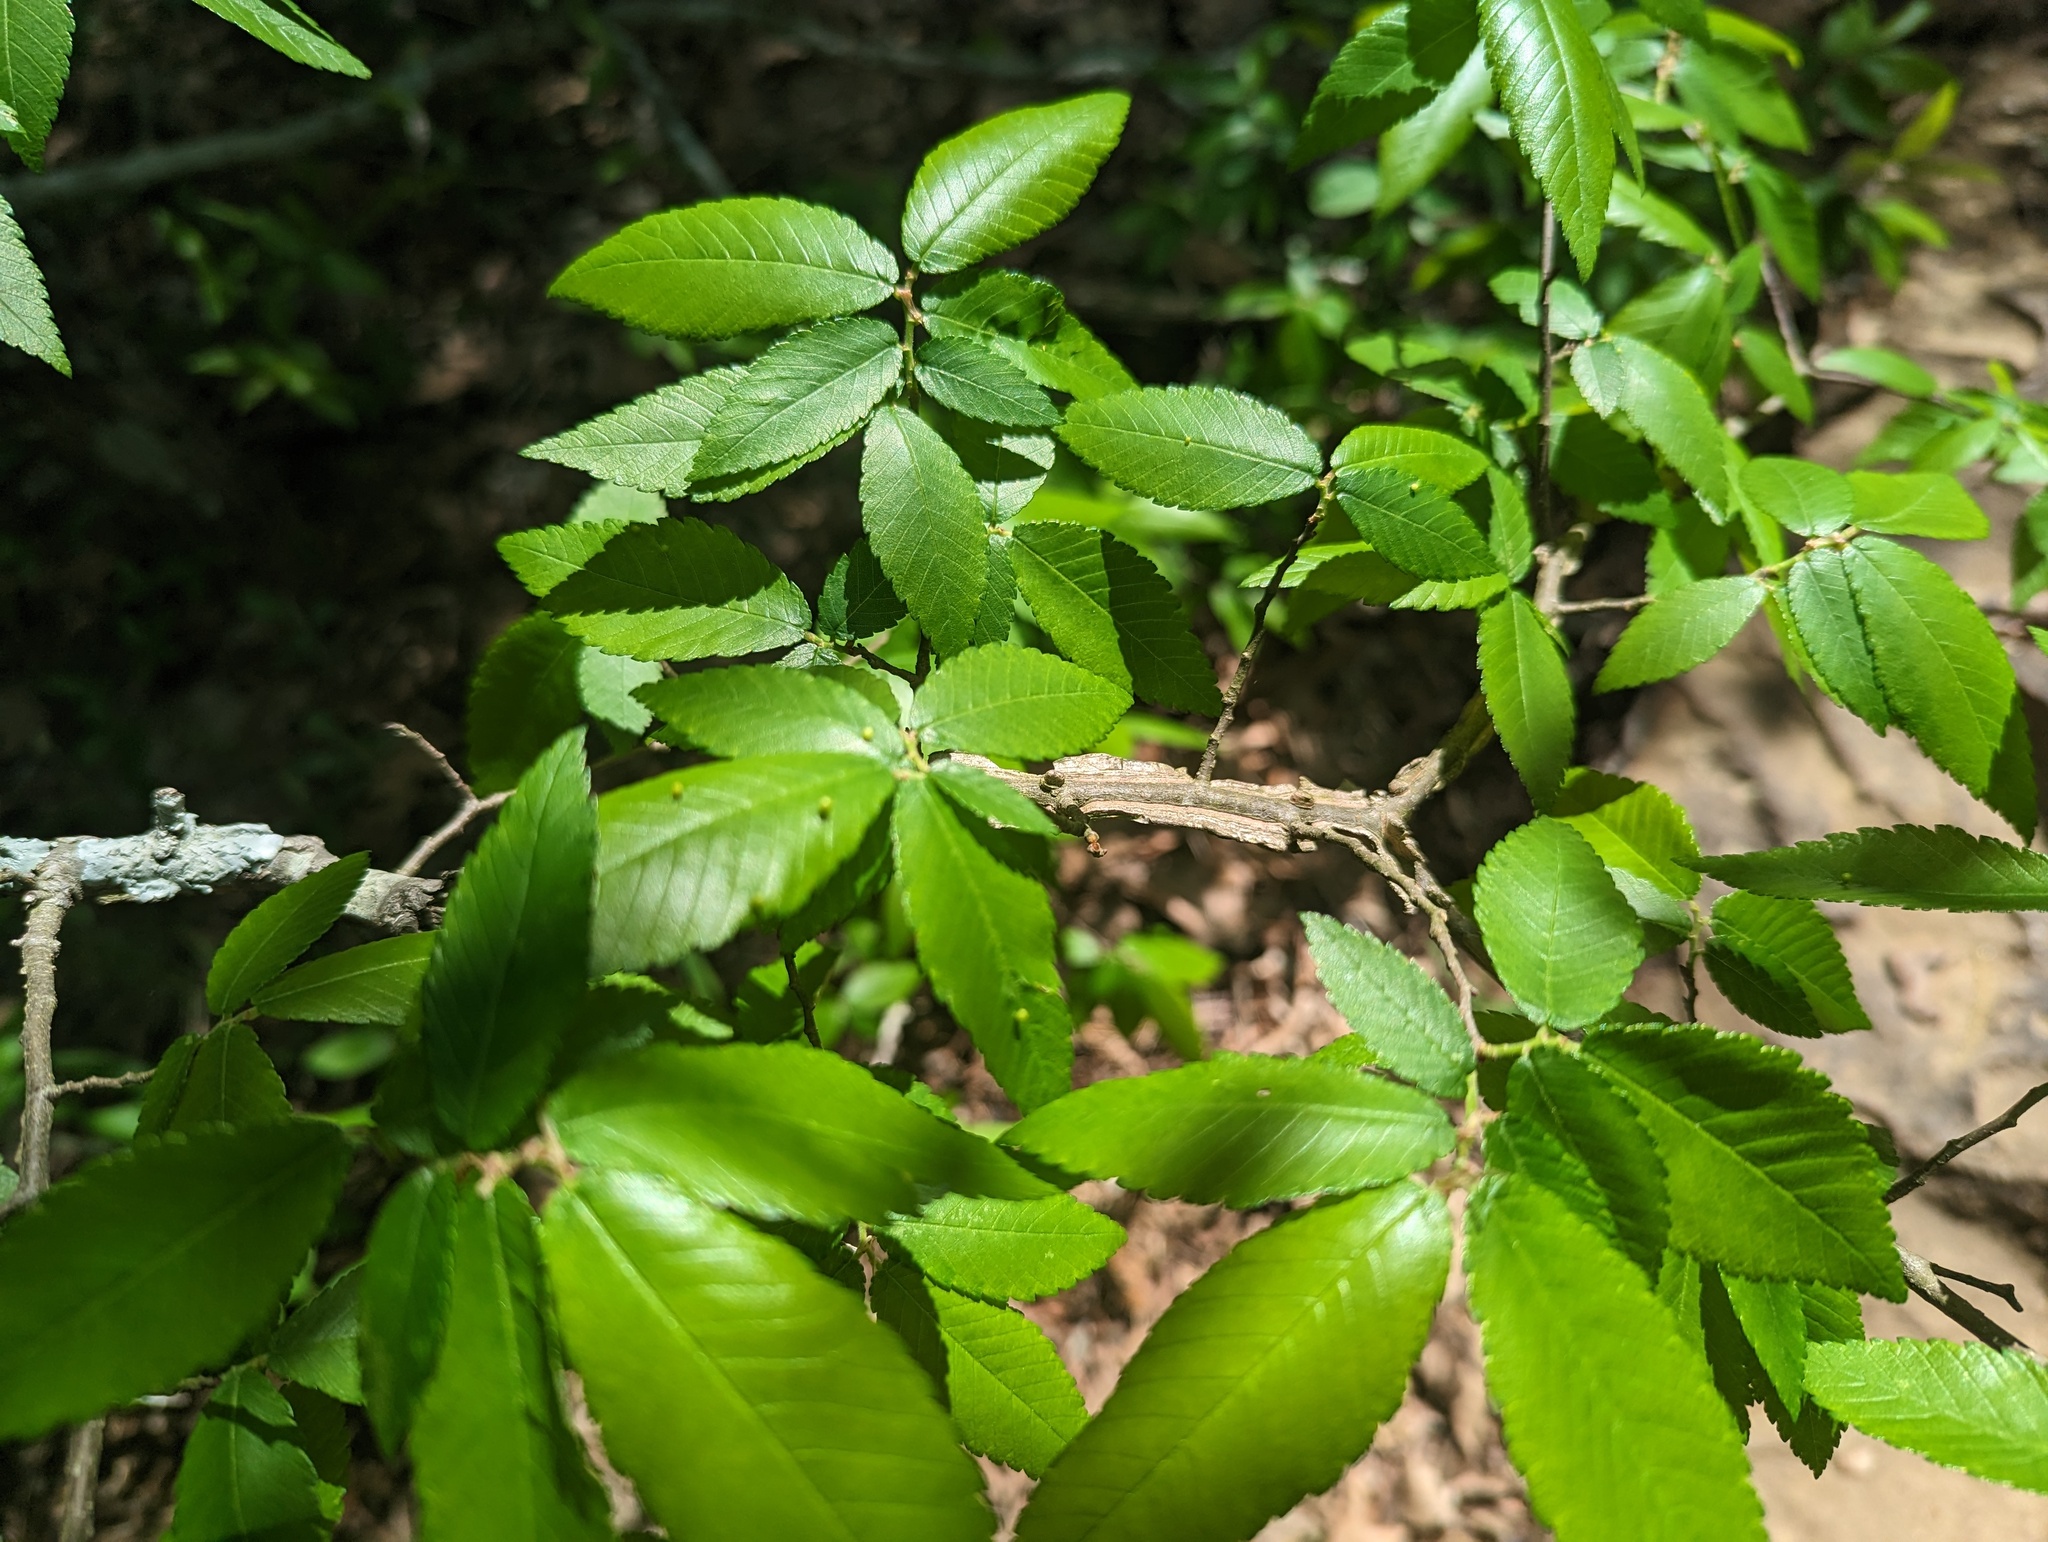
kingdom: Plantae
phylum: Tracheophyta
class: Magnoliopsida
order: Rosales
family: Ulmaceae
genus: Ulmus
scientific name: Ulmus alata
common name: Winged elm
